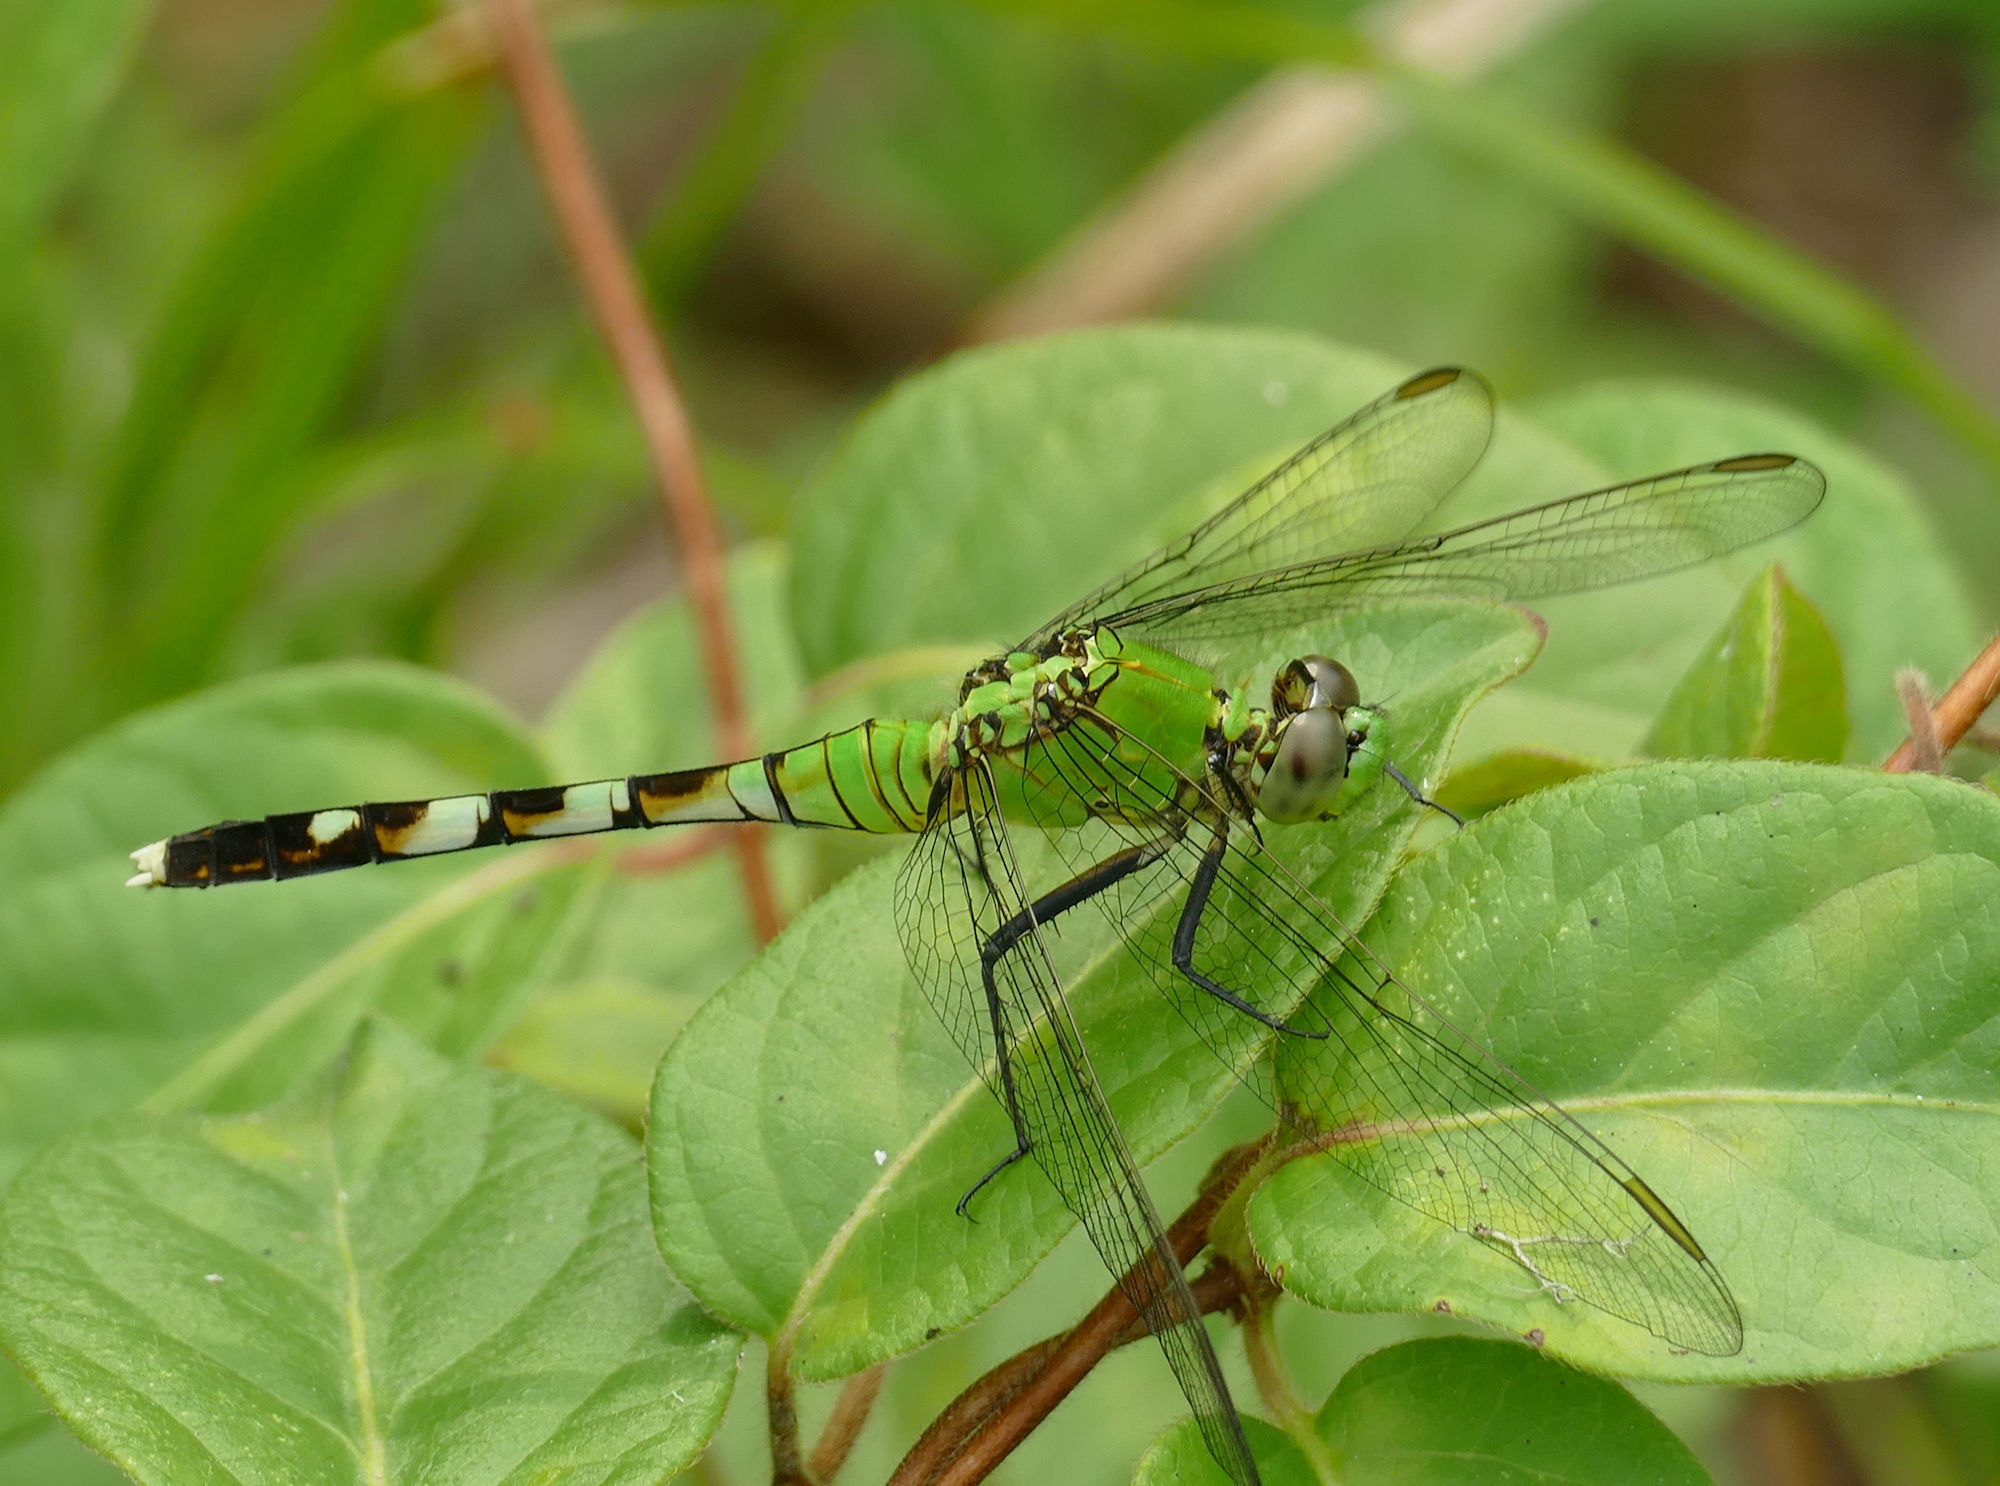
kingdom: Animalia
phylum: Arthropoda
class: Insecta
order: Odonata
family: Libellulidae
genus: Erythemis
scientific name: Erythemis simplicicollis
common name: Eastern pondhawk
